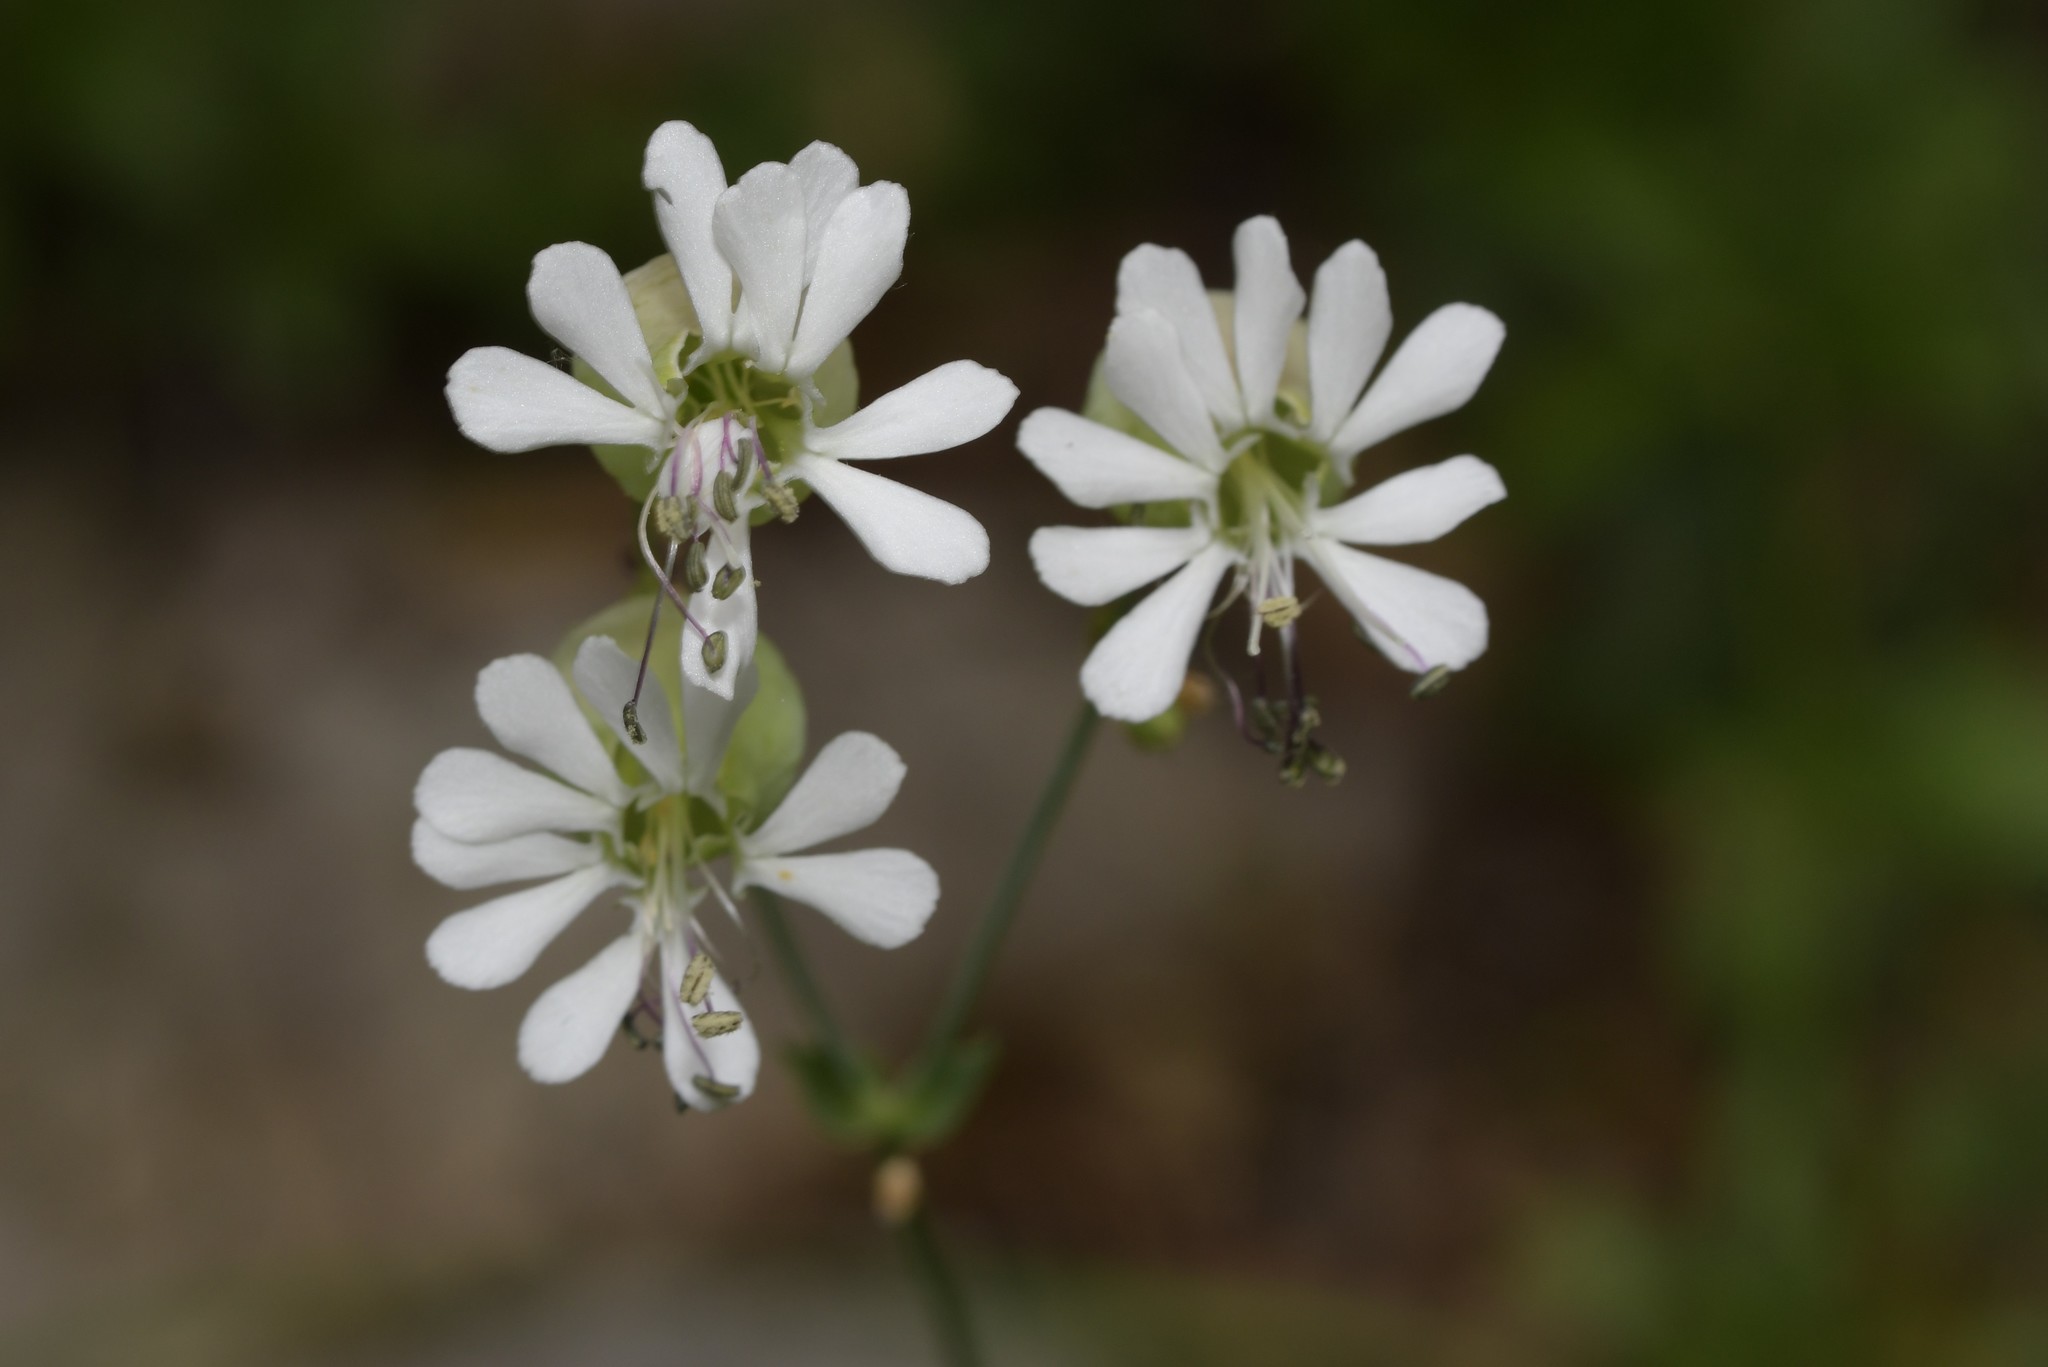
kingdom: Plantae
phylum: Tracheophyta
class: Magnoliopsida
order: Caryophyllales
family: Caryophyllaceae
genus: Silene
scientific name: Silene vulgaris
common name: Bladder campion
